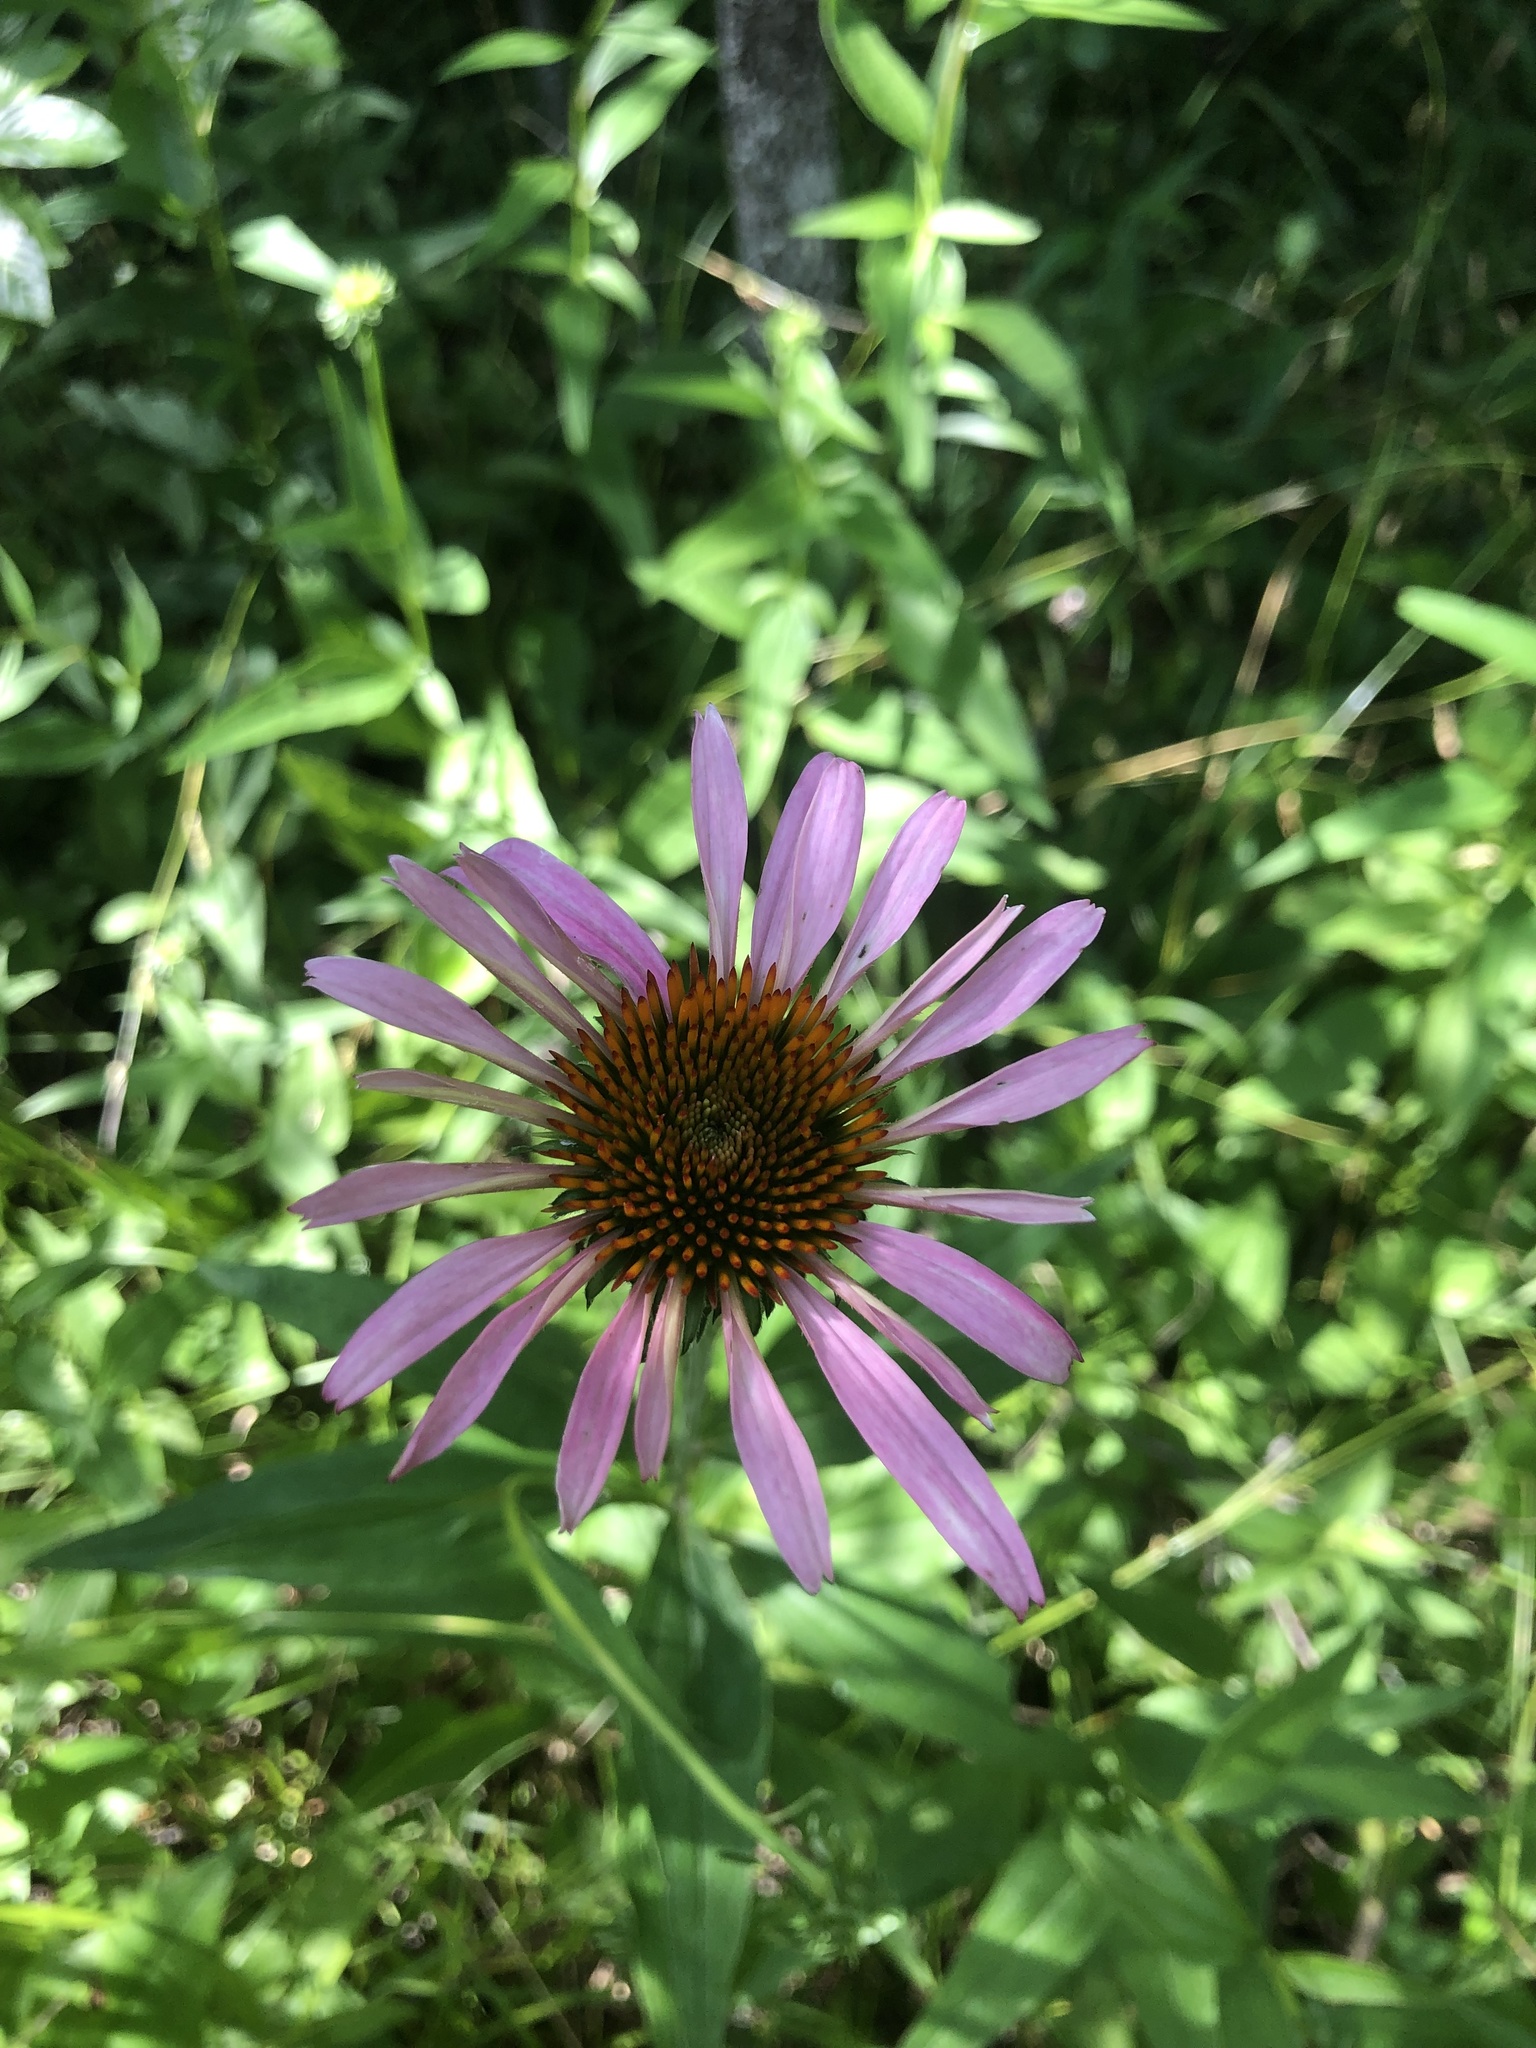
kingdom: Plantae
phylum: Tracheophyta
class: Magnoliopsida
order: Asterales
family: Asteraceae
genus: Echinacea
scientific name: Echinacea purpurea
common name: Broad-leaved purple coneflower
